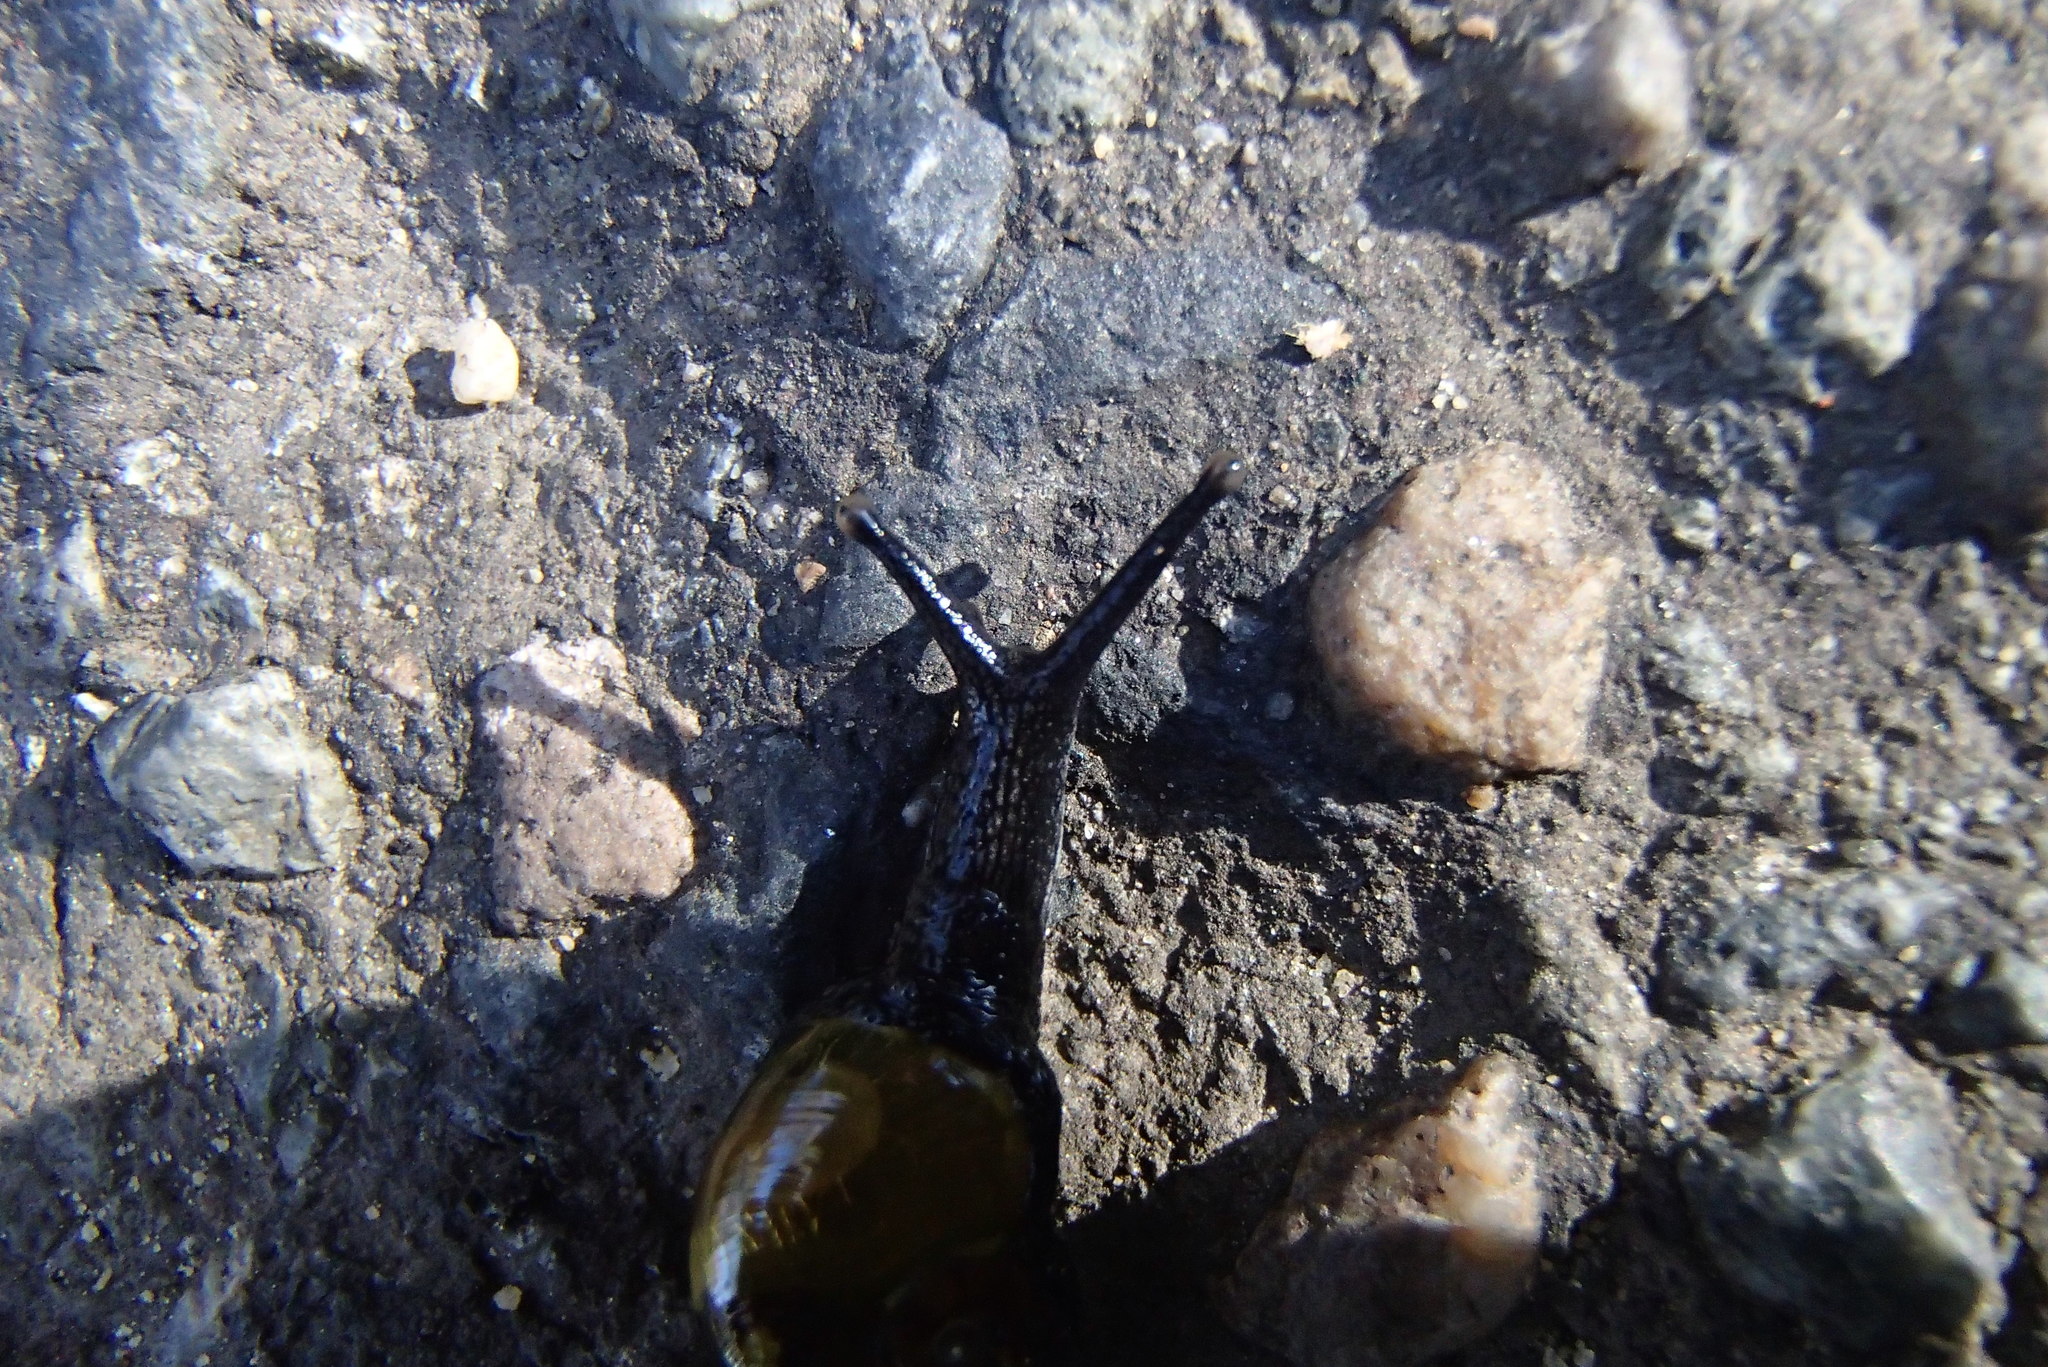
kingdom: Animalia
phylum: Mollusca
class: Gastropoda
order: Stylommatophora
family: Helicarionidae
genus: Helicarion
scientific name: Helicarion cuvieri
